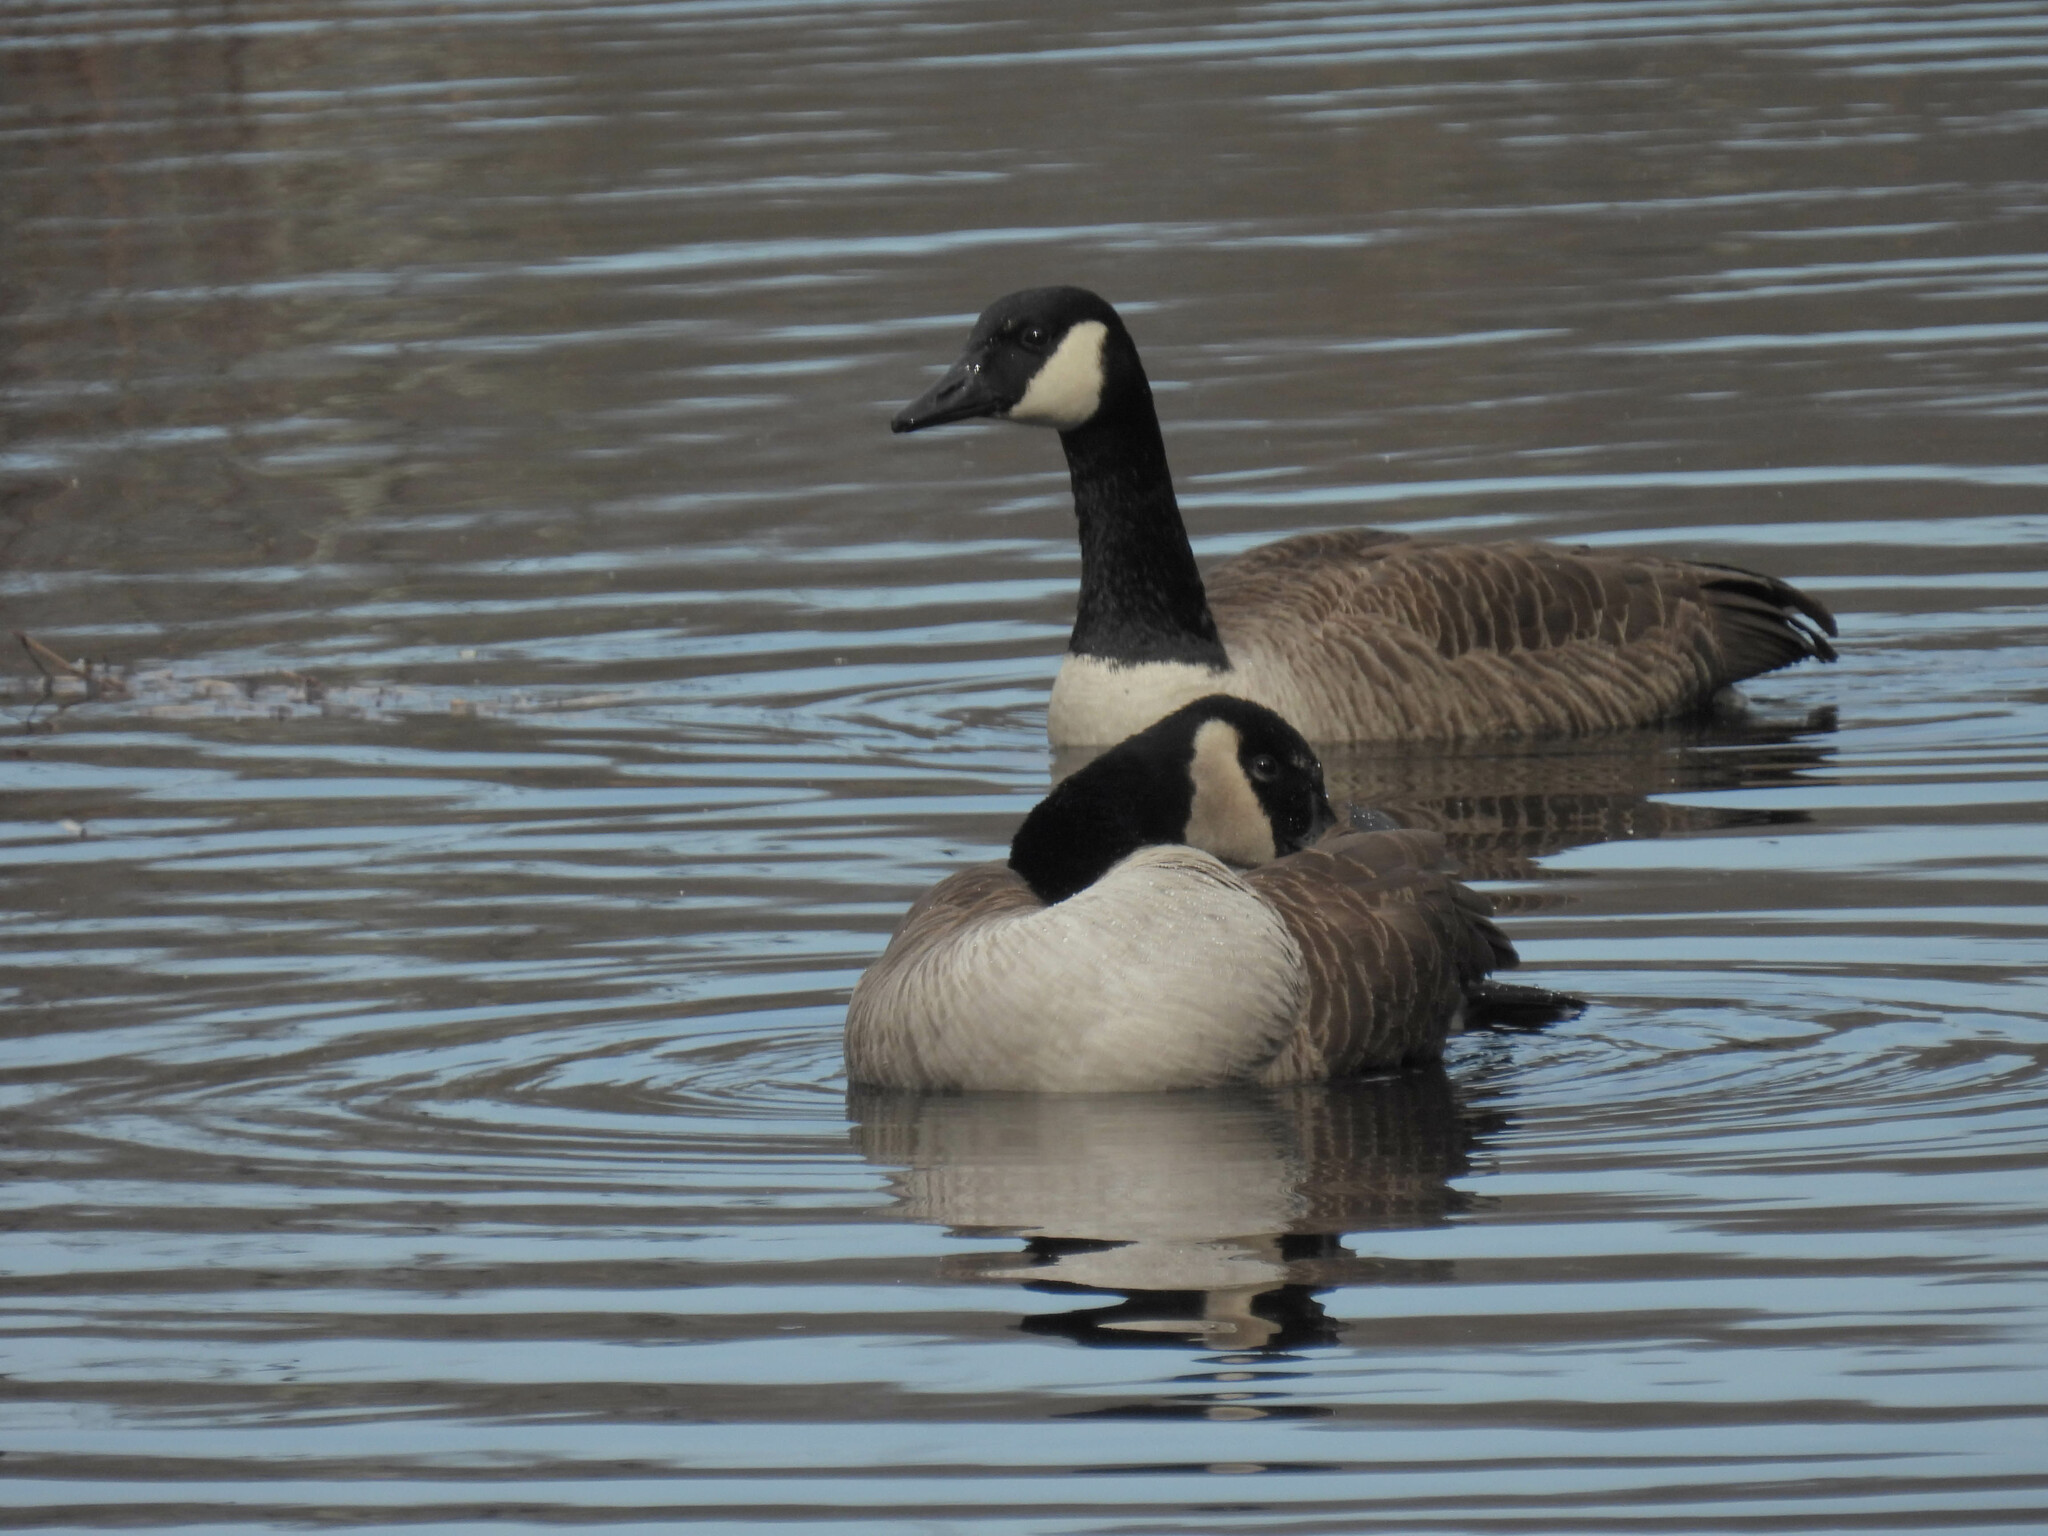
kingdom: Animalia
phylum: Chordata
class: Aves
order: Anseriformes
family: Anatidae
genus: Branta
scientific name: Branta canadensis
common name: Canada goose
